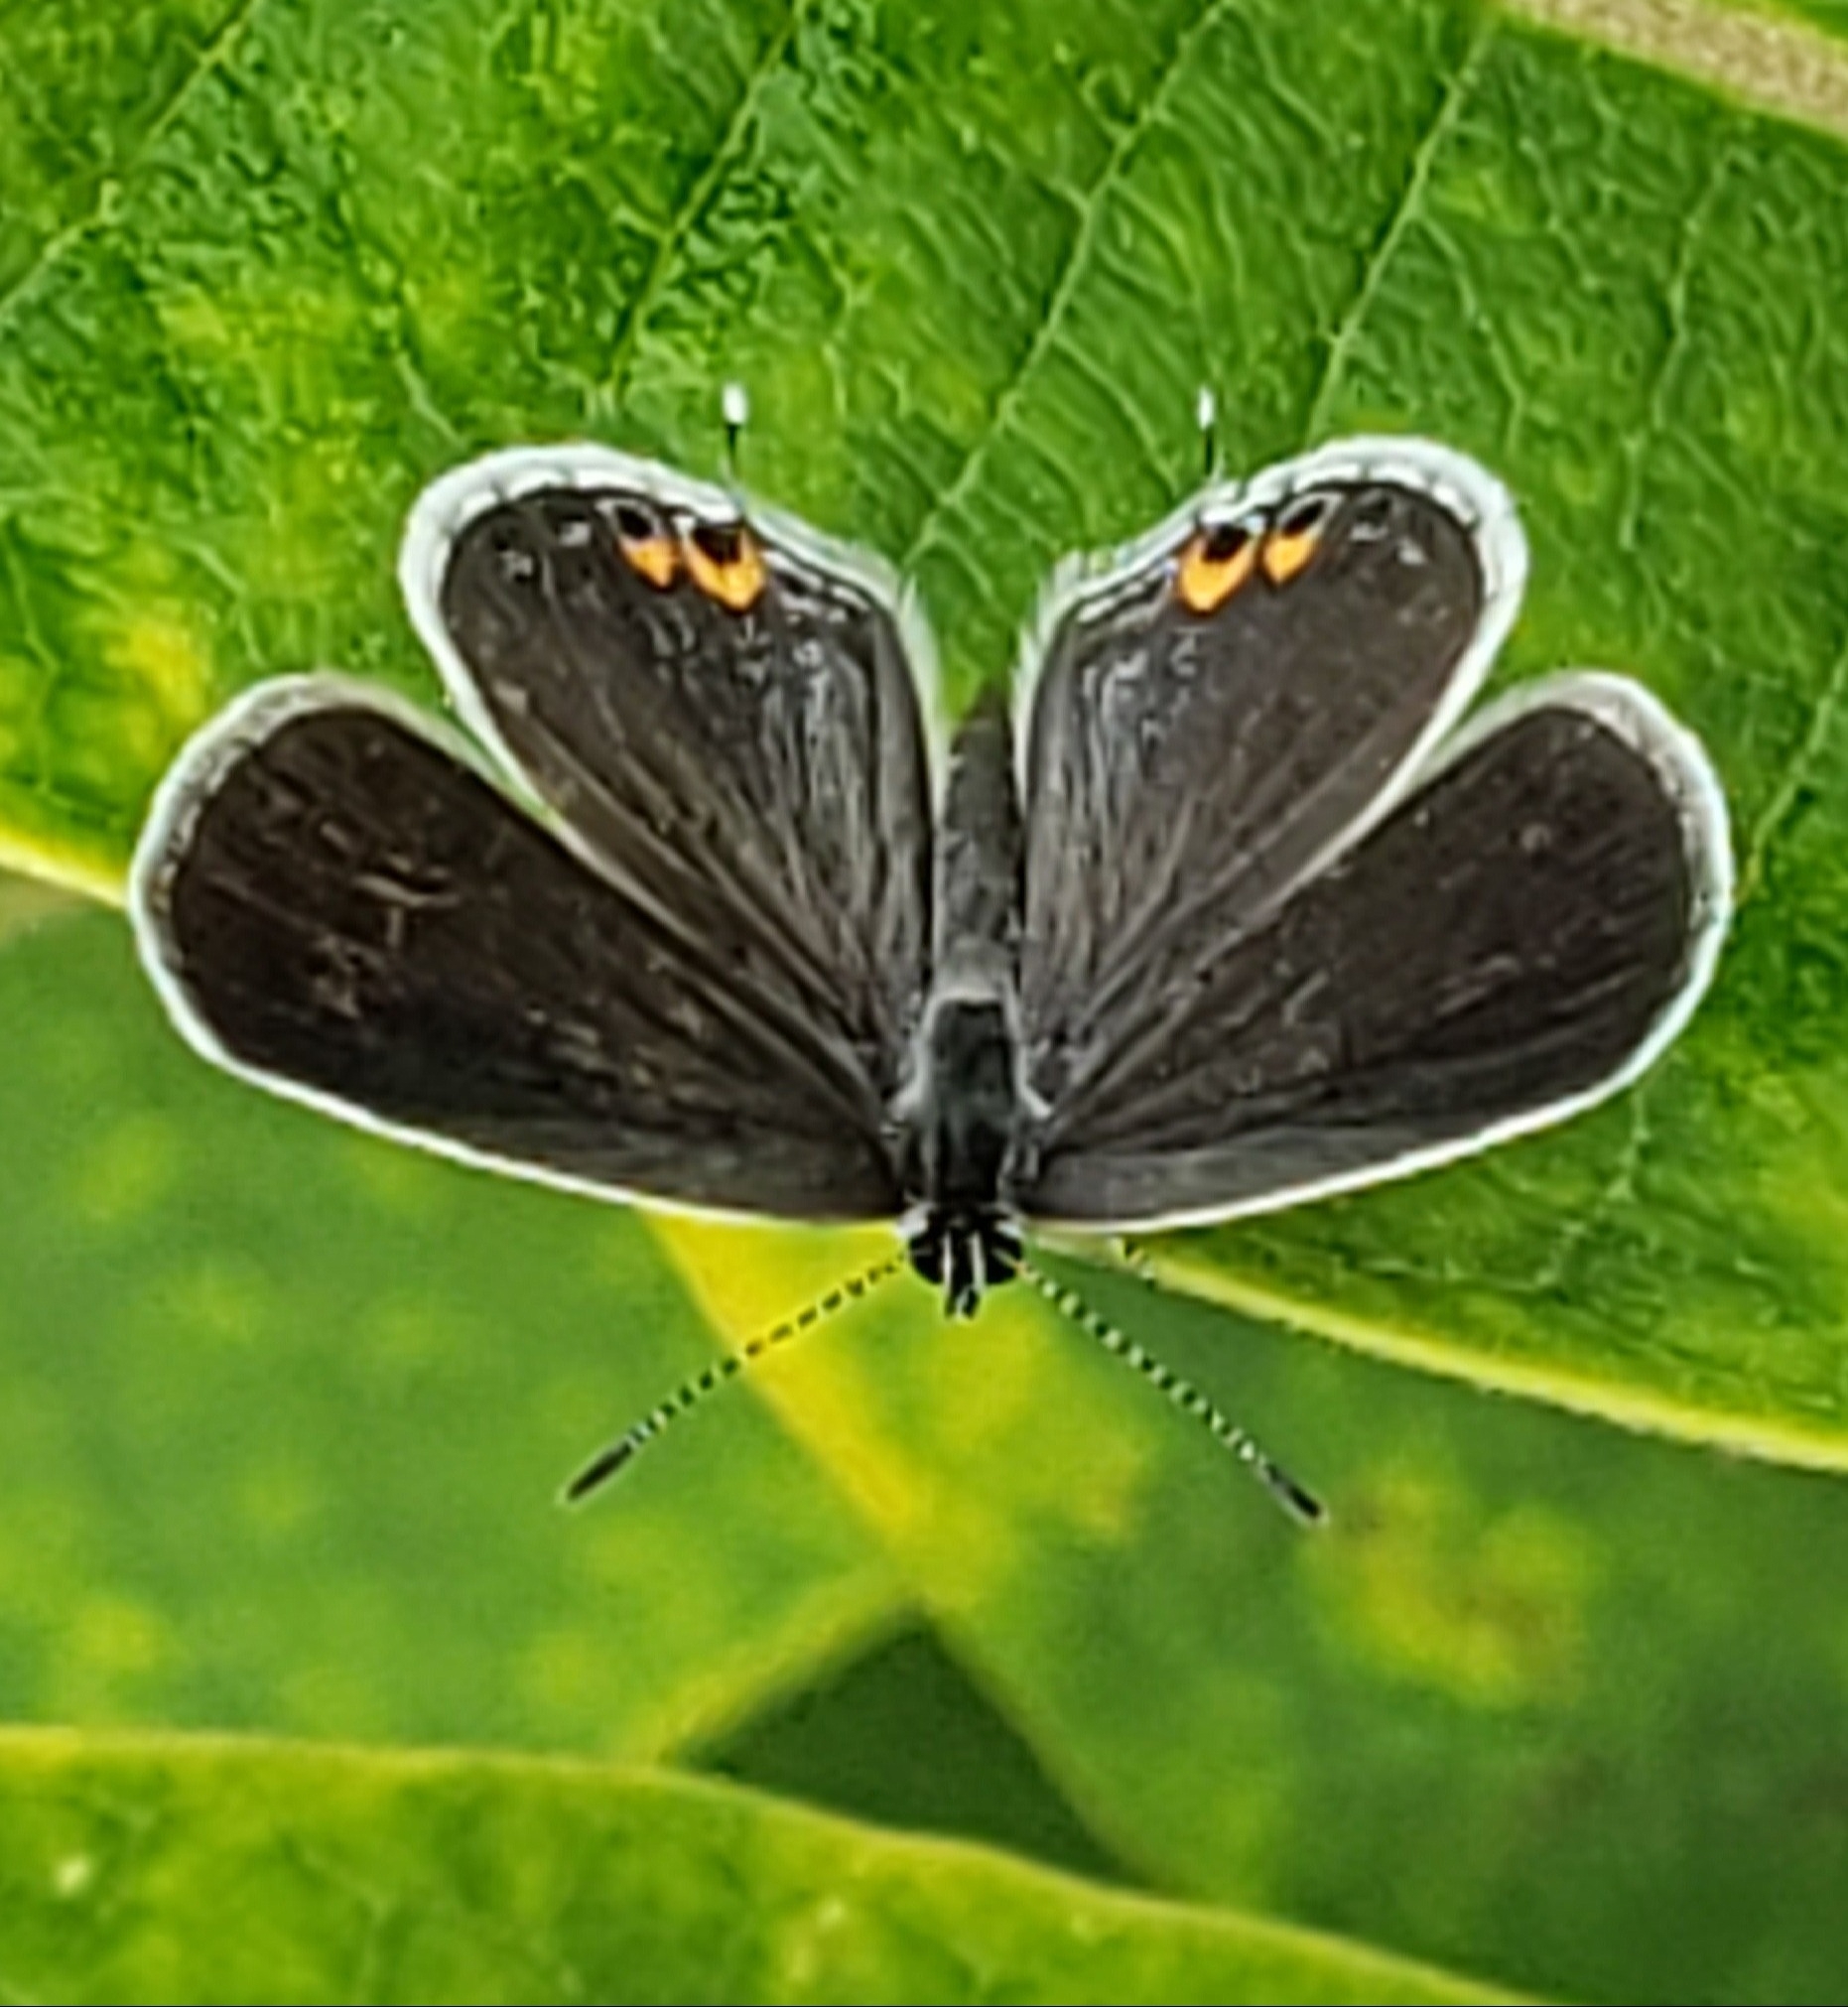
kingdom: Animalia
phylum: Arthropoda
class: Insecta
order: Lepidoptera
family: Lycaenidae
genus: Elkalyce
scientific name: Elkalyce comyntas
